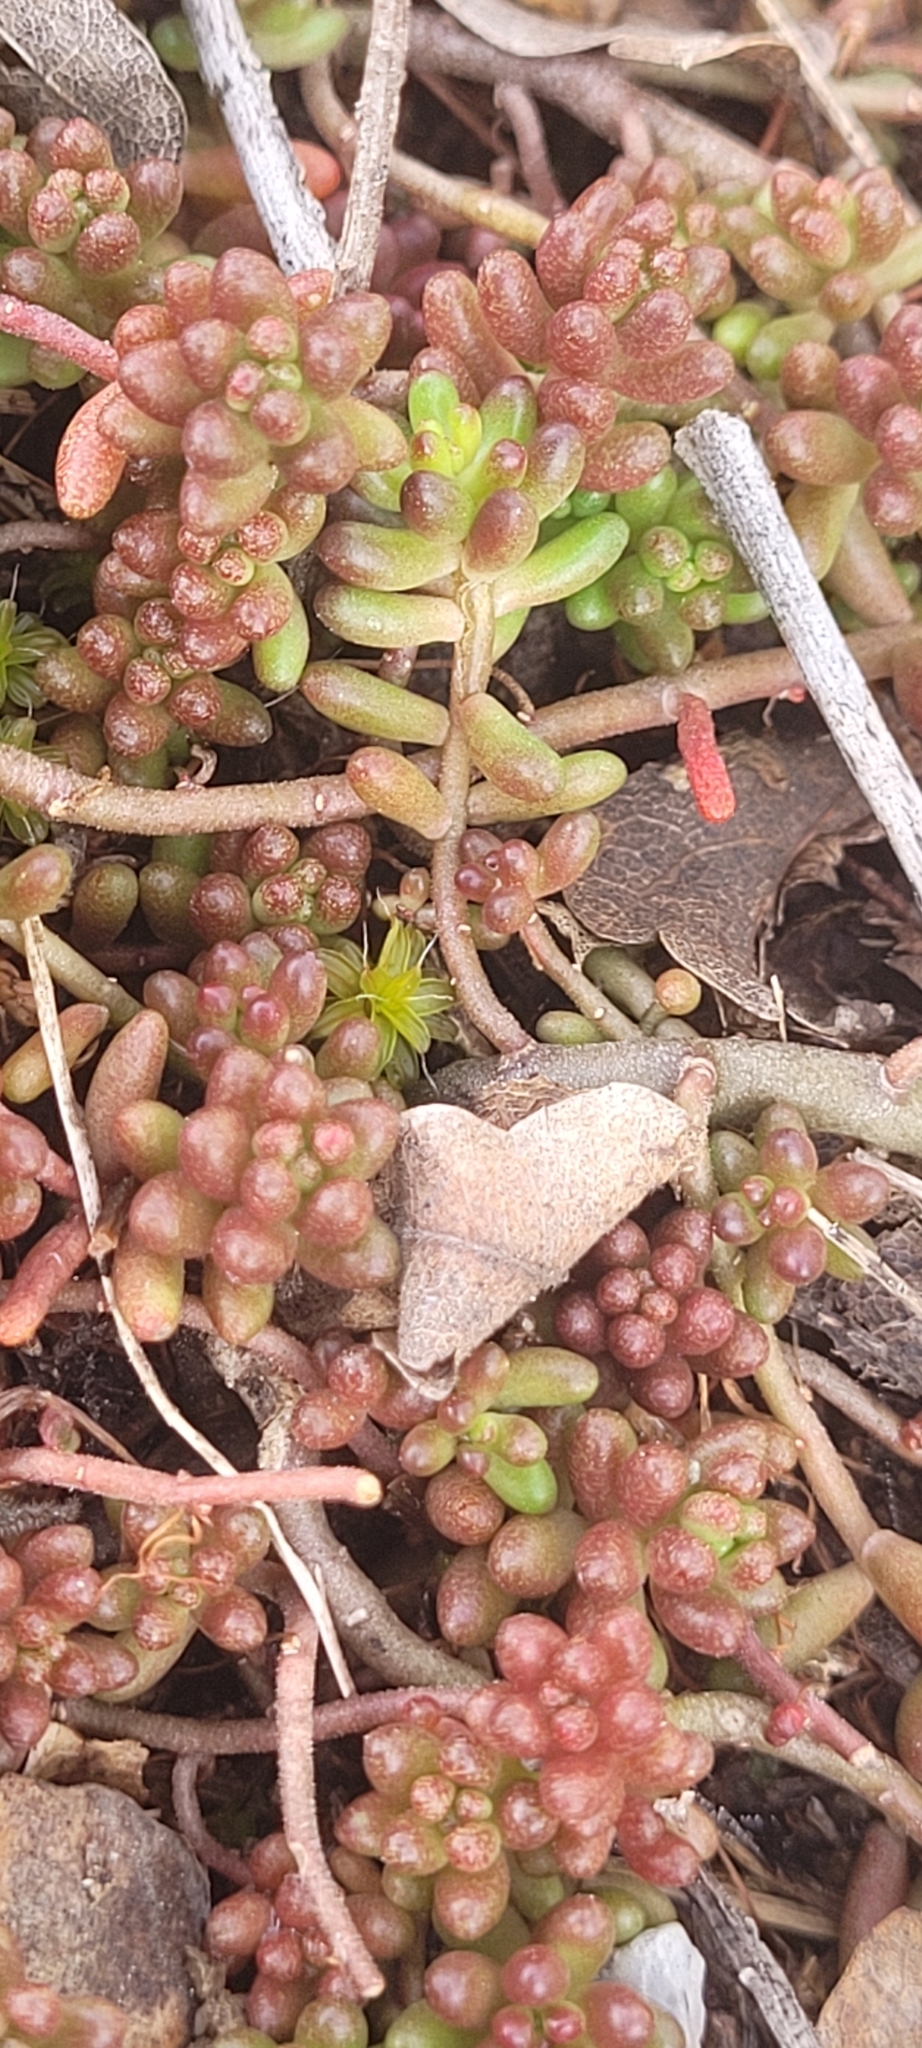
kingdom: Plantae
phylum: Tracheophyta
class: Magnoliopsida
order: Saxifragales
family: Crassulaceae
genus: Sedum
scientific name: Sedum album
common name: White stonecrop
